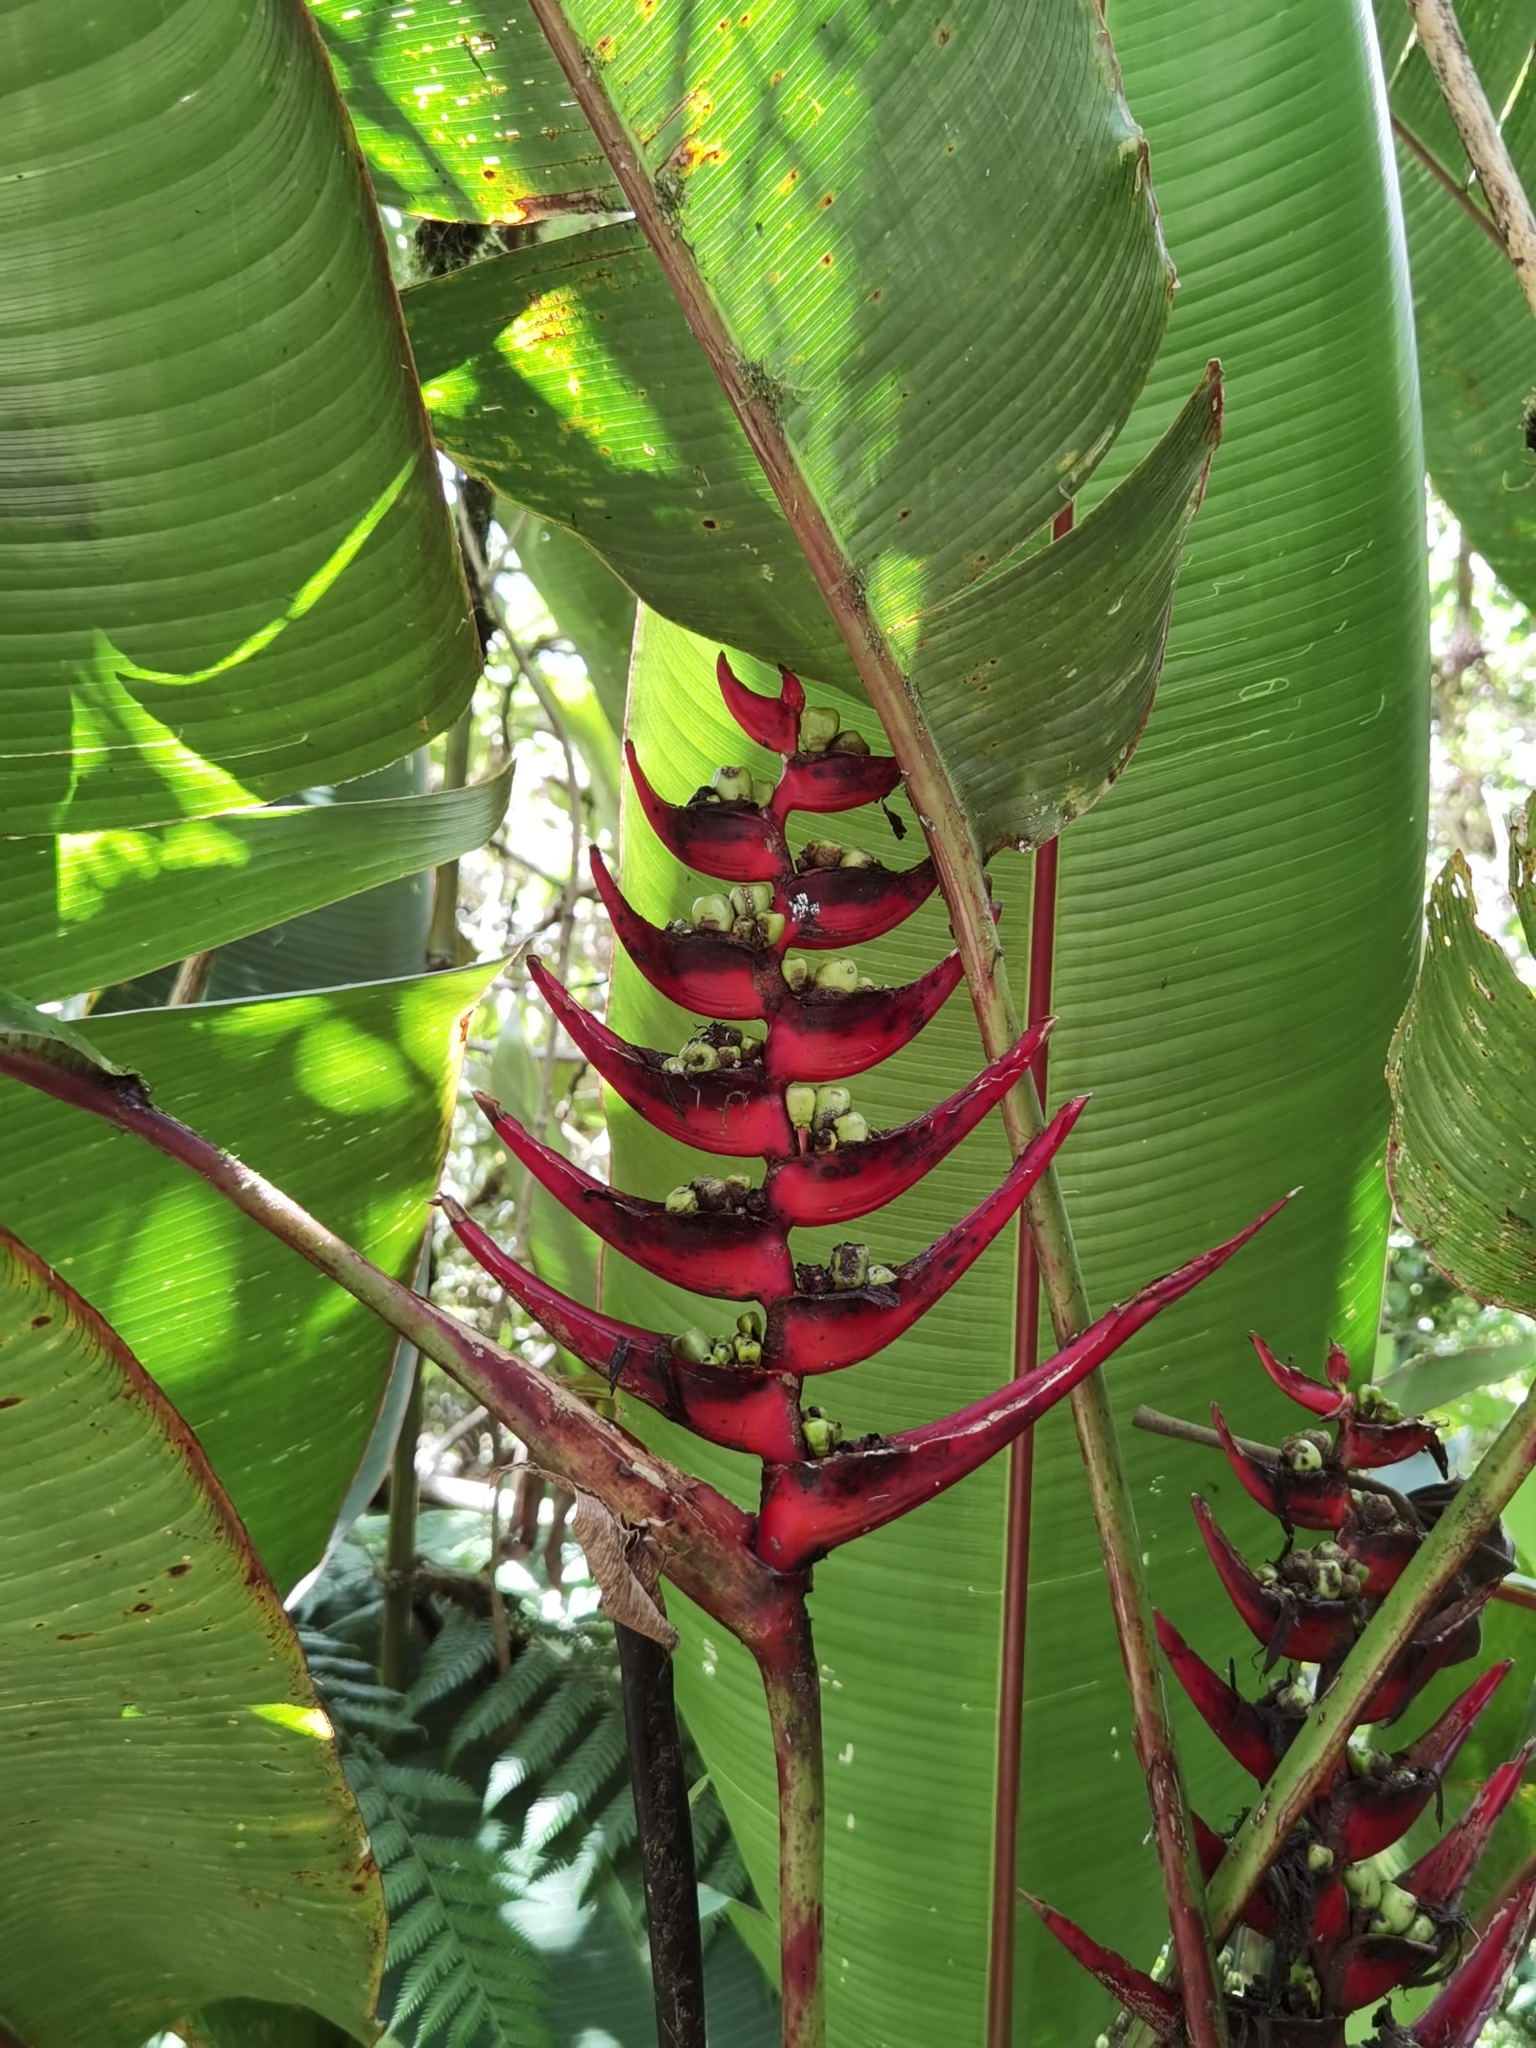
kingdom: Plantae
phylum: Tracheophyta
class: Liliopsida
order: Zingiberales
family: Heliconiaceae
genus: Heliconia
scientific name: Heliconia lankesteri
